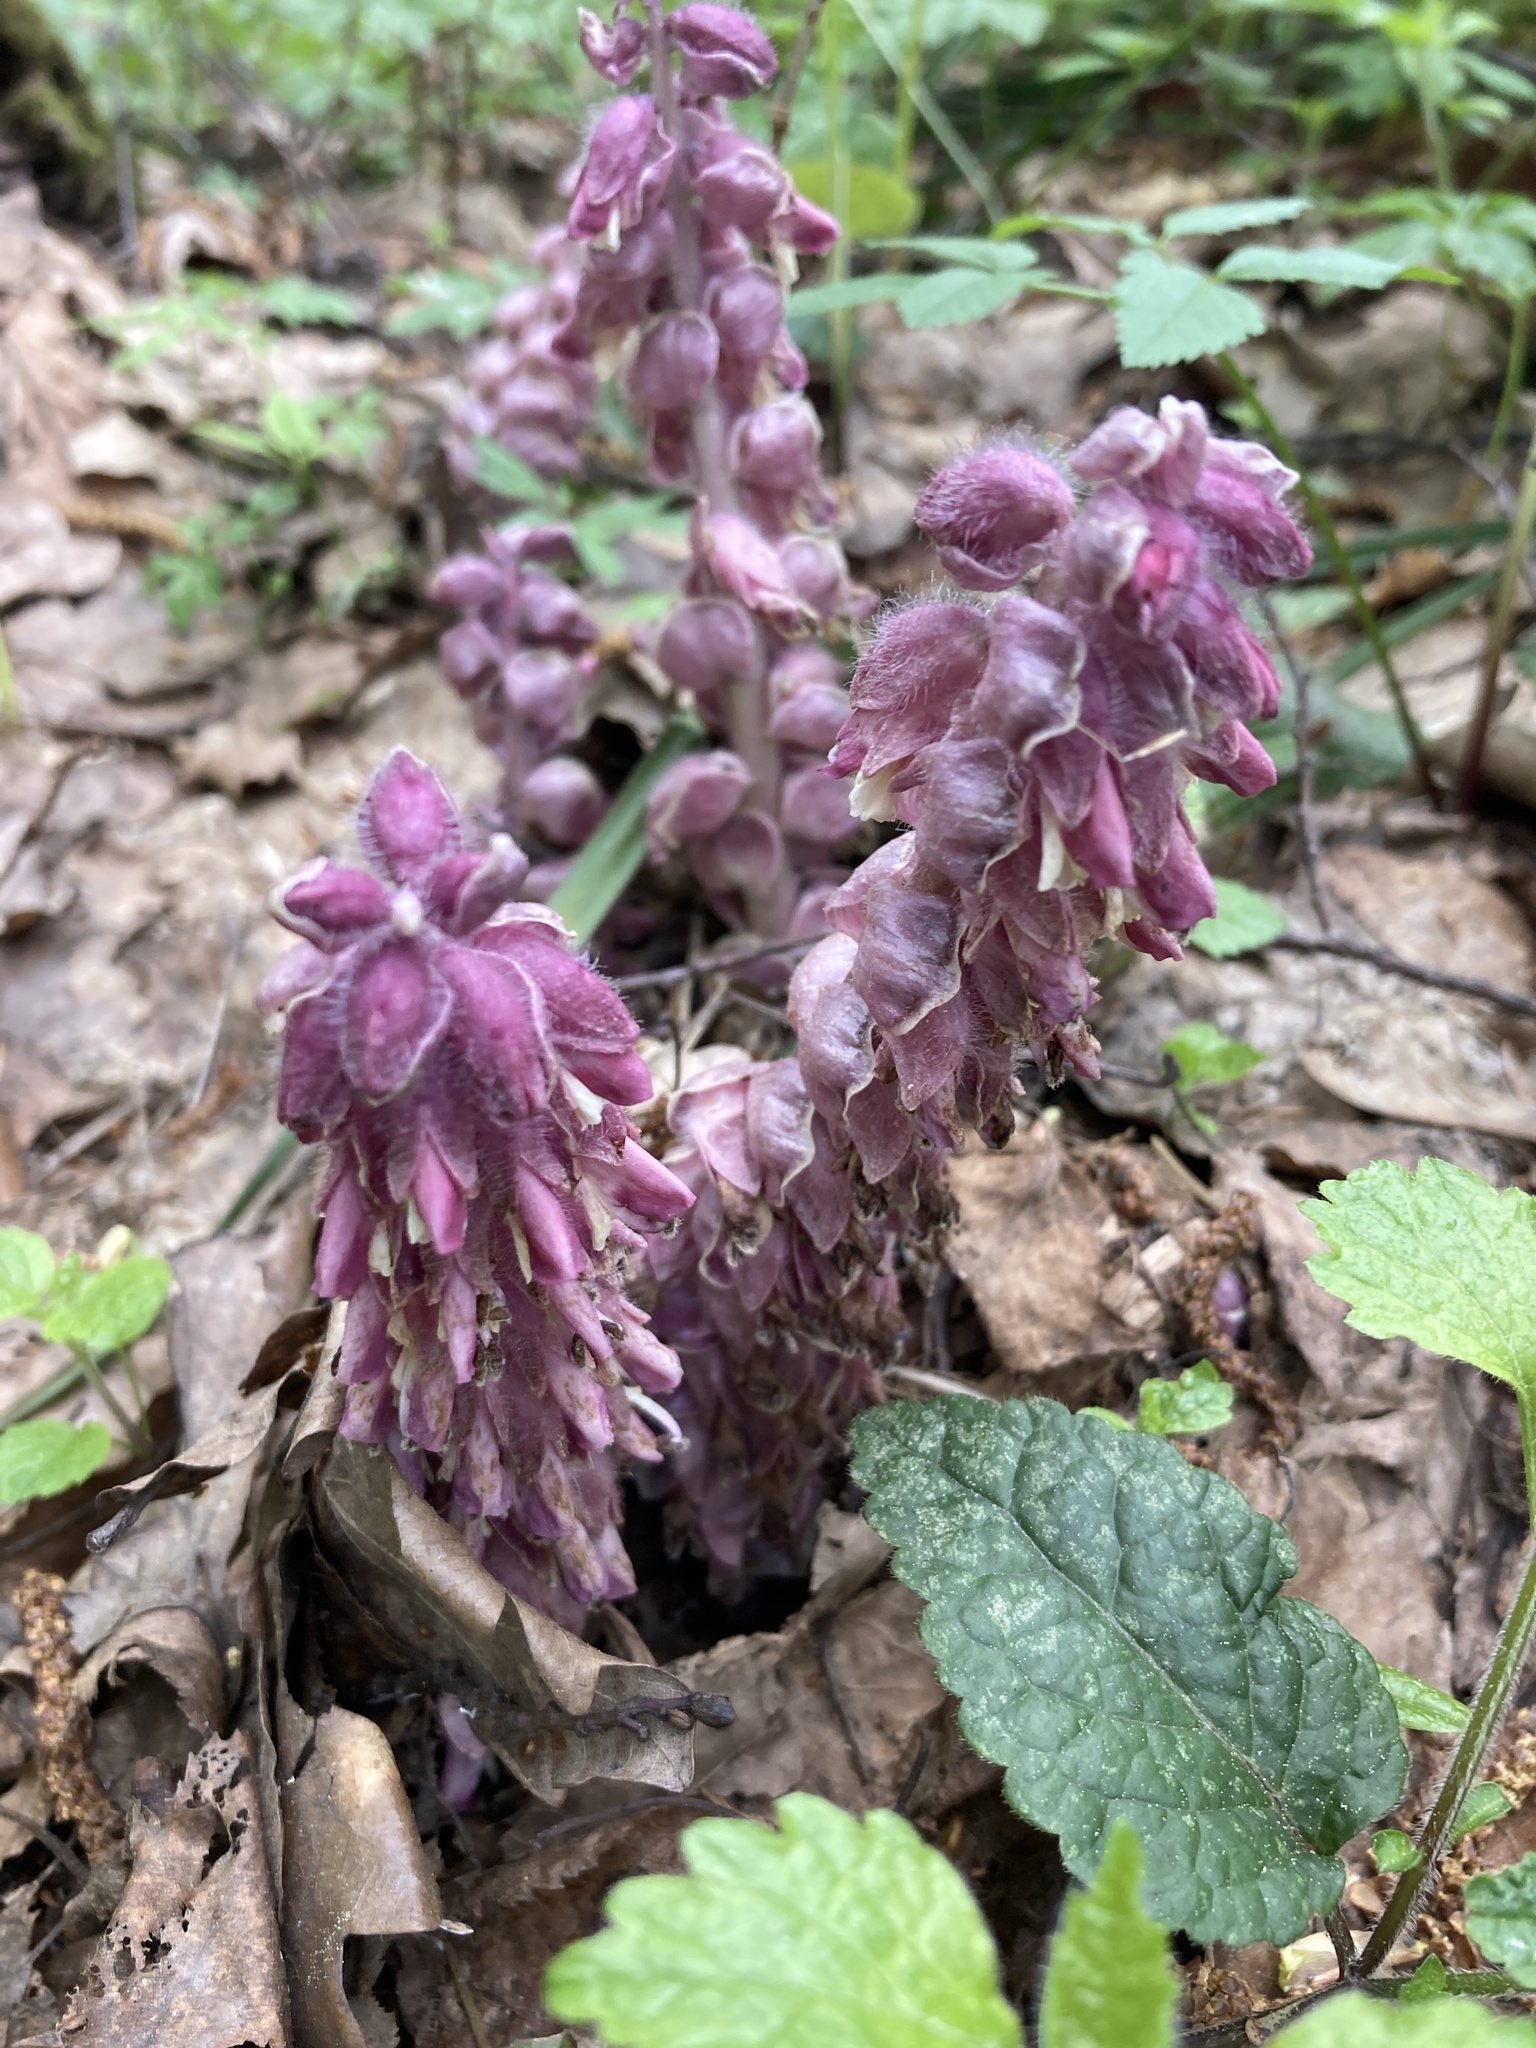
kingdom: Plantae
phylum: Tracheophyta
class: Magnoliopsida
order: Lamiales
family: Orobanchaceae
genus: Lathraea
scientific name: Lathraea squamaria
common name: Toothwort
